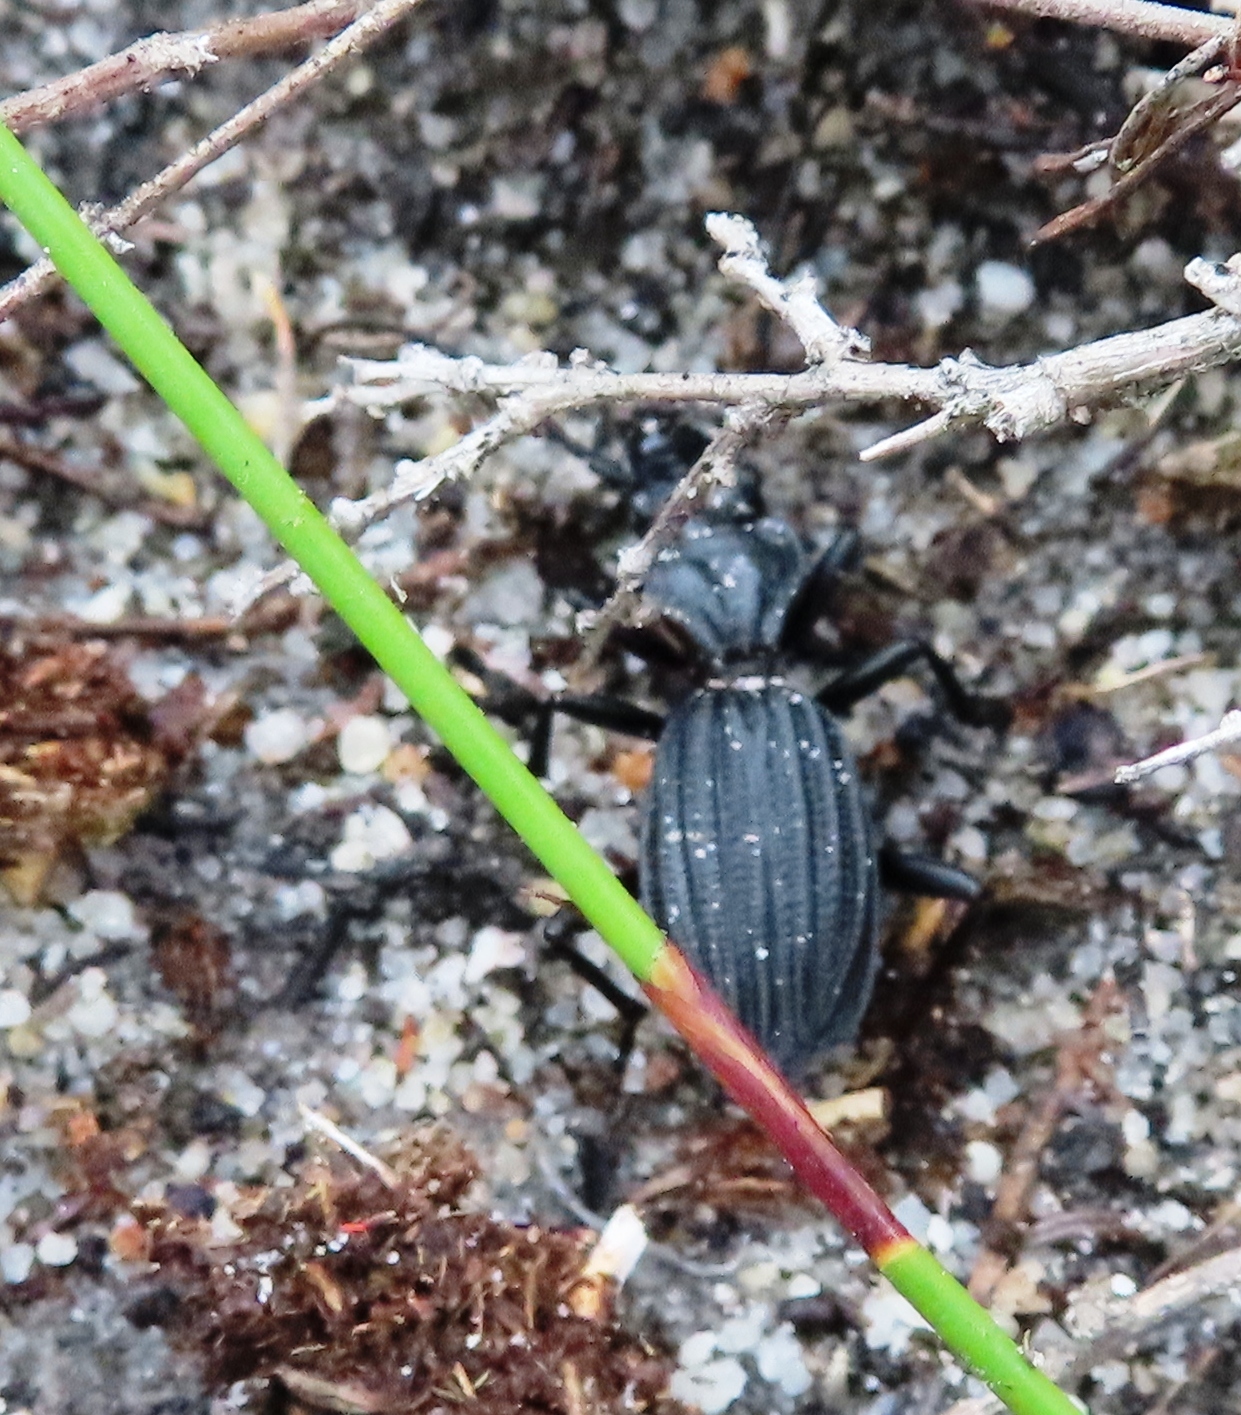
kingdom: Animalia
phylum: Arthropoda
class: Insecta
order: Coleoptera
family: Carabidae
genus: Anthia
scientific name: Anthia decemguttata
